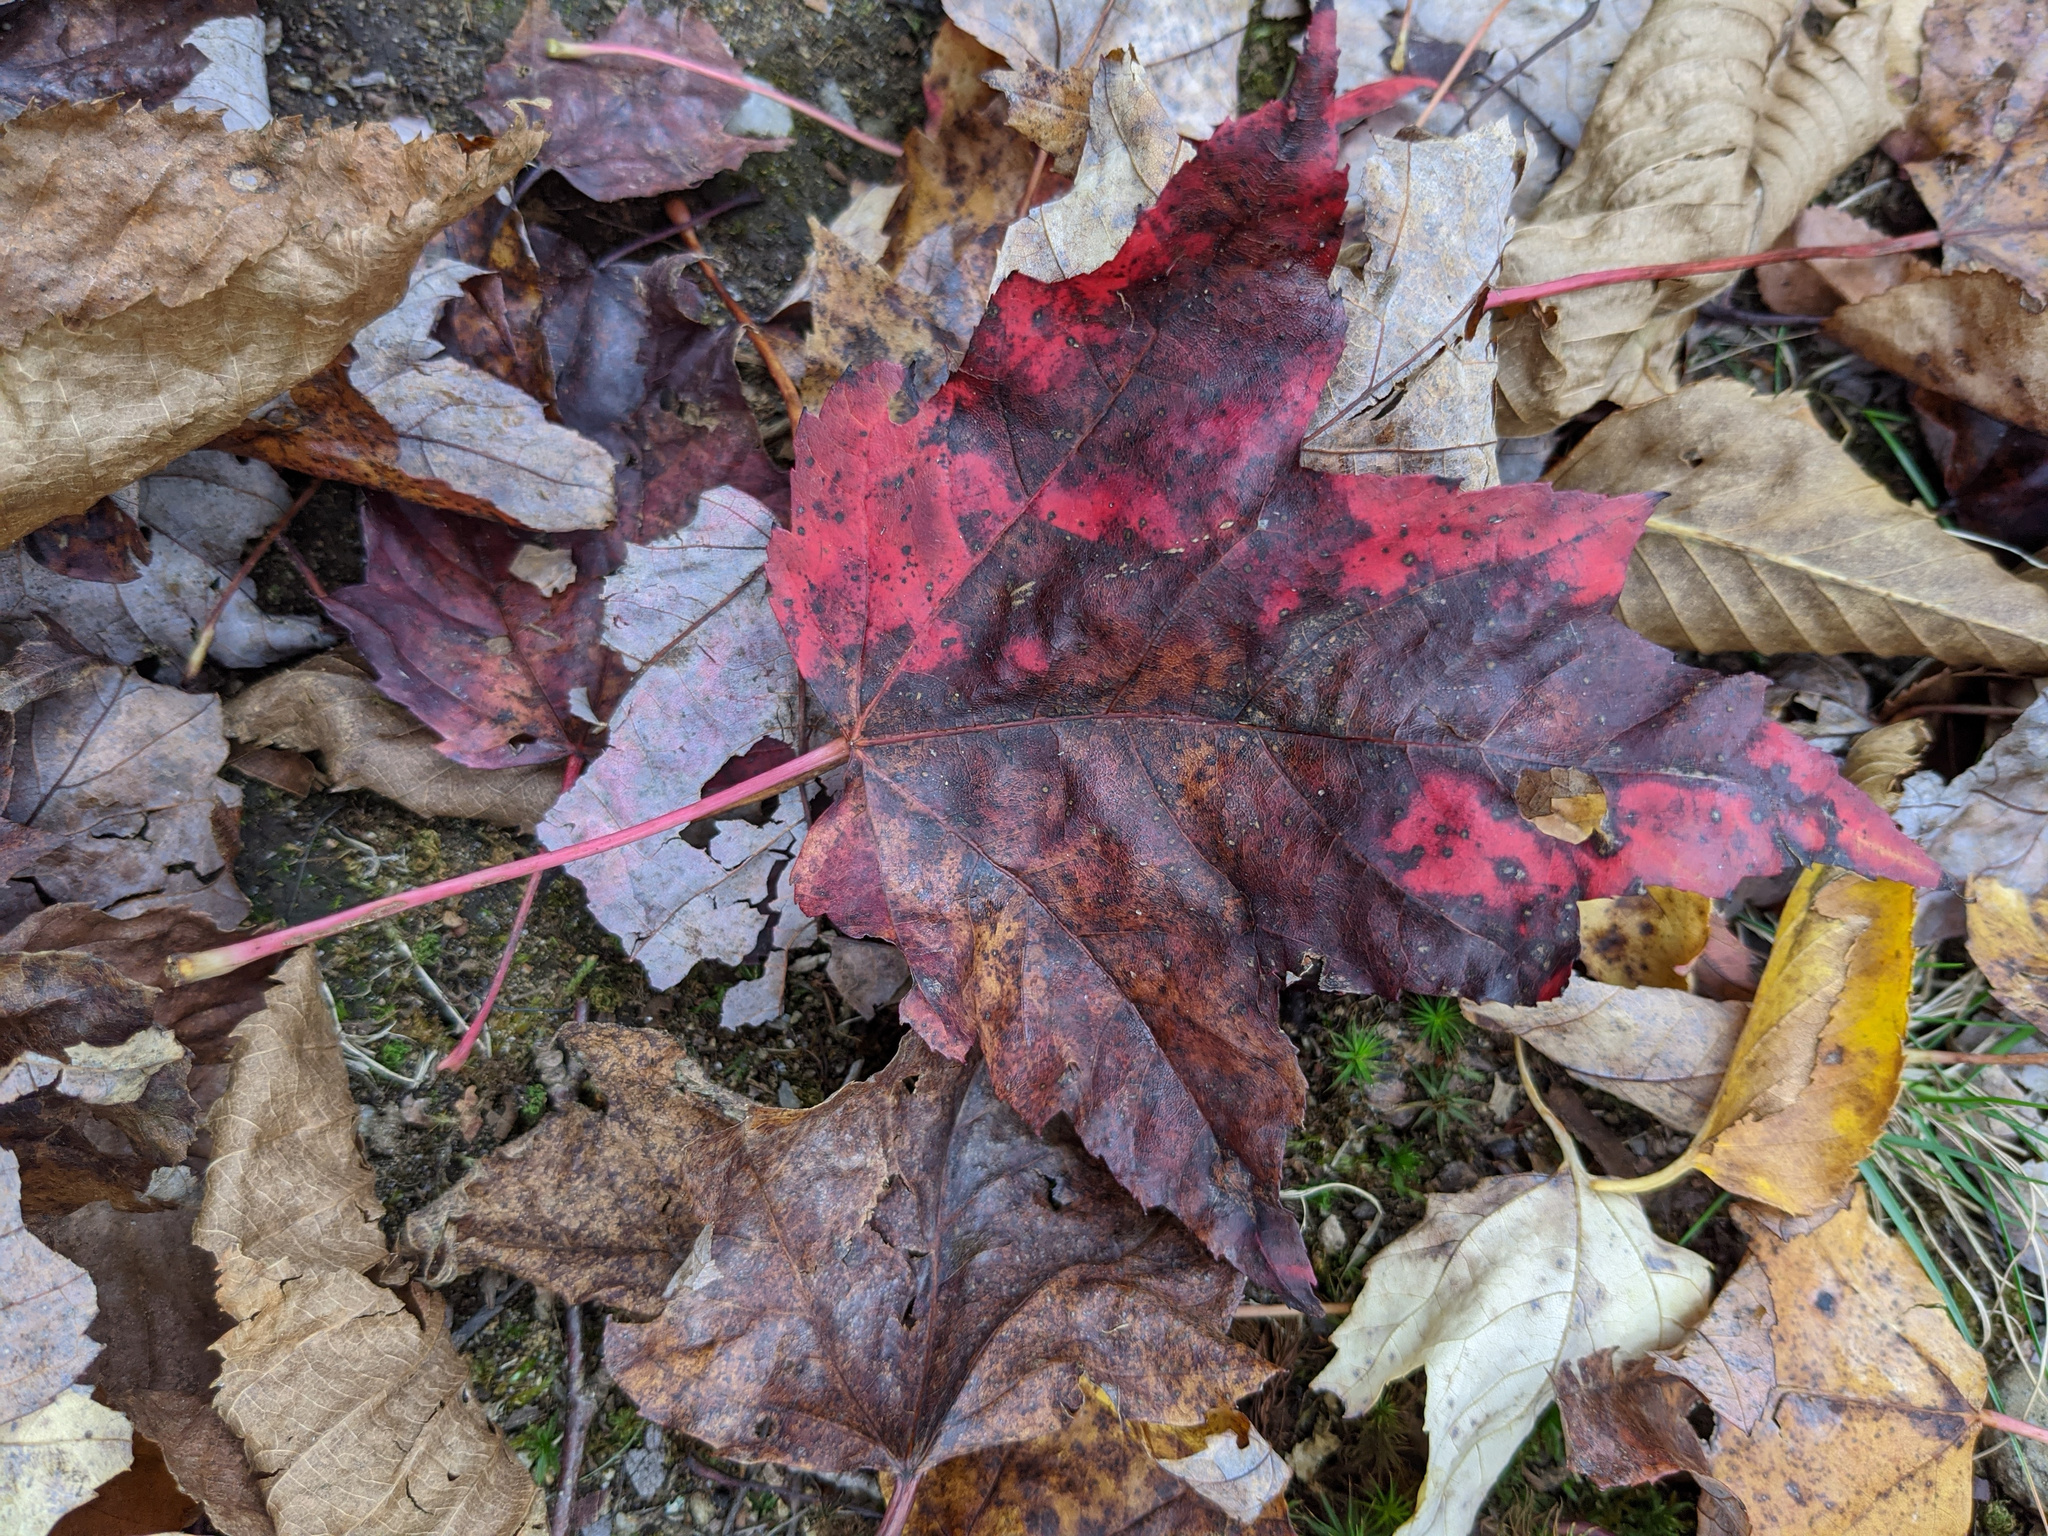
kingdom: Plantae
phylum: Tracheophyta
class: Magnoliopsida
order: Sapindales
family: Sapindaceae
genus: Acer
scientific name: Acer rubrum
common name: Red maple
